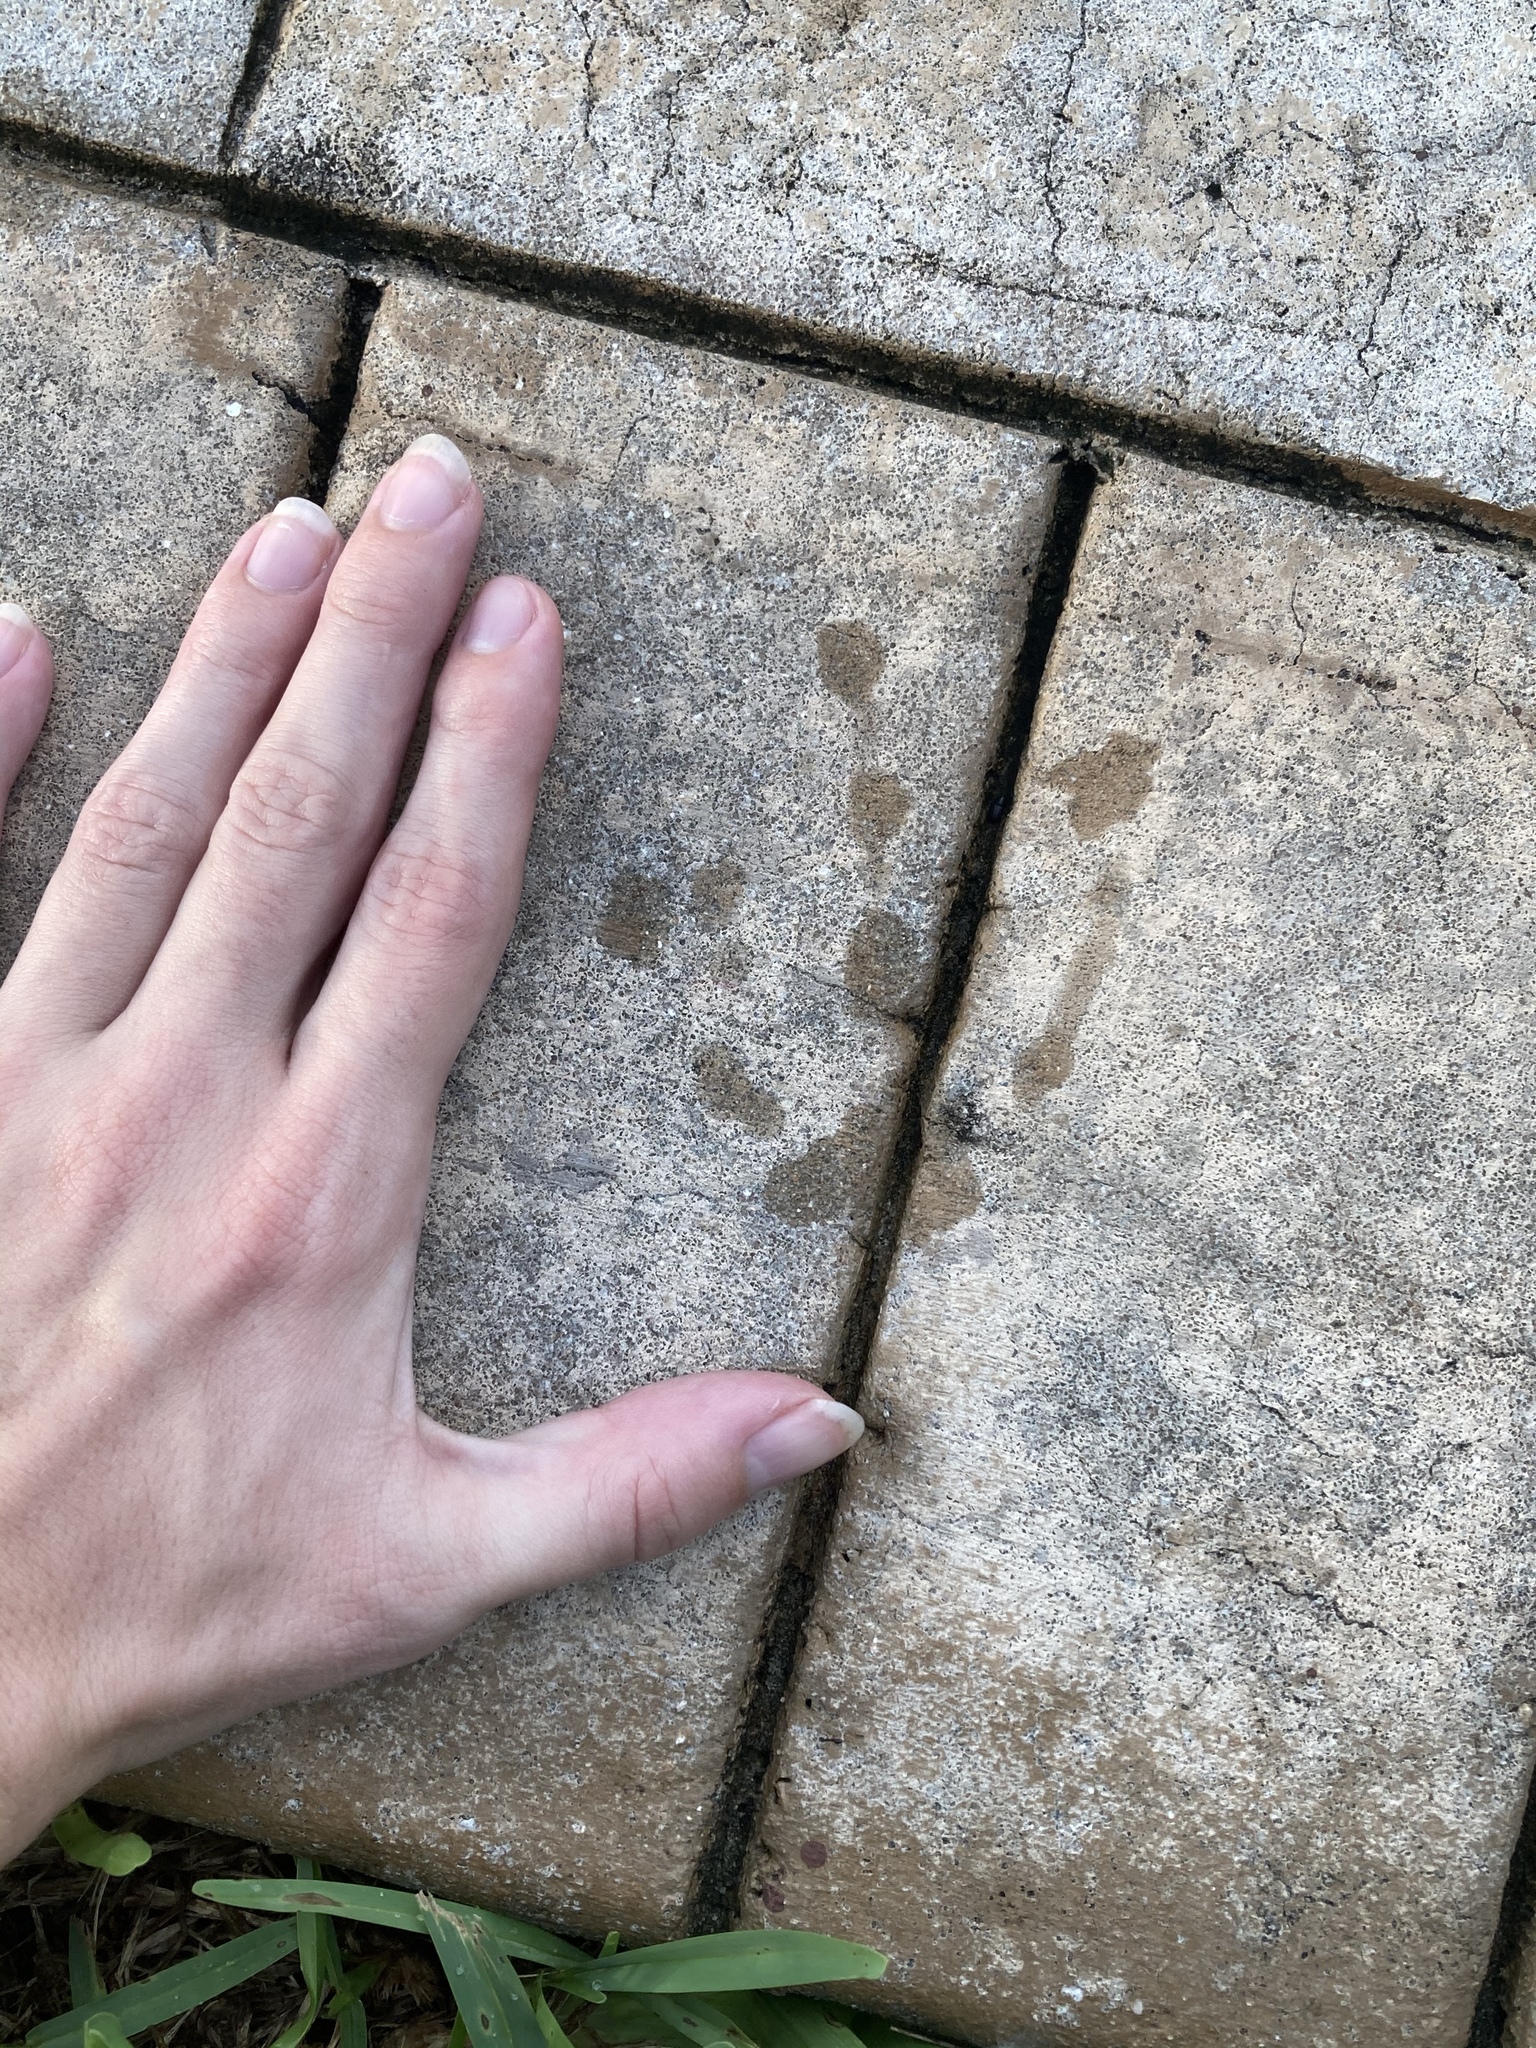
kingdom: Animalia
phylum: Chordata
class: Aves
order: Anseriformes
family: Anatidae
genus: Cairina
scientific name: Cairina moschata
